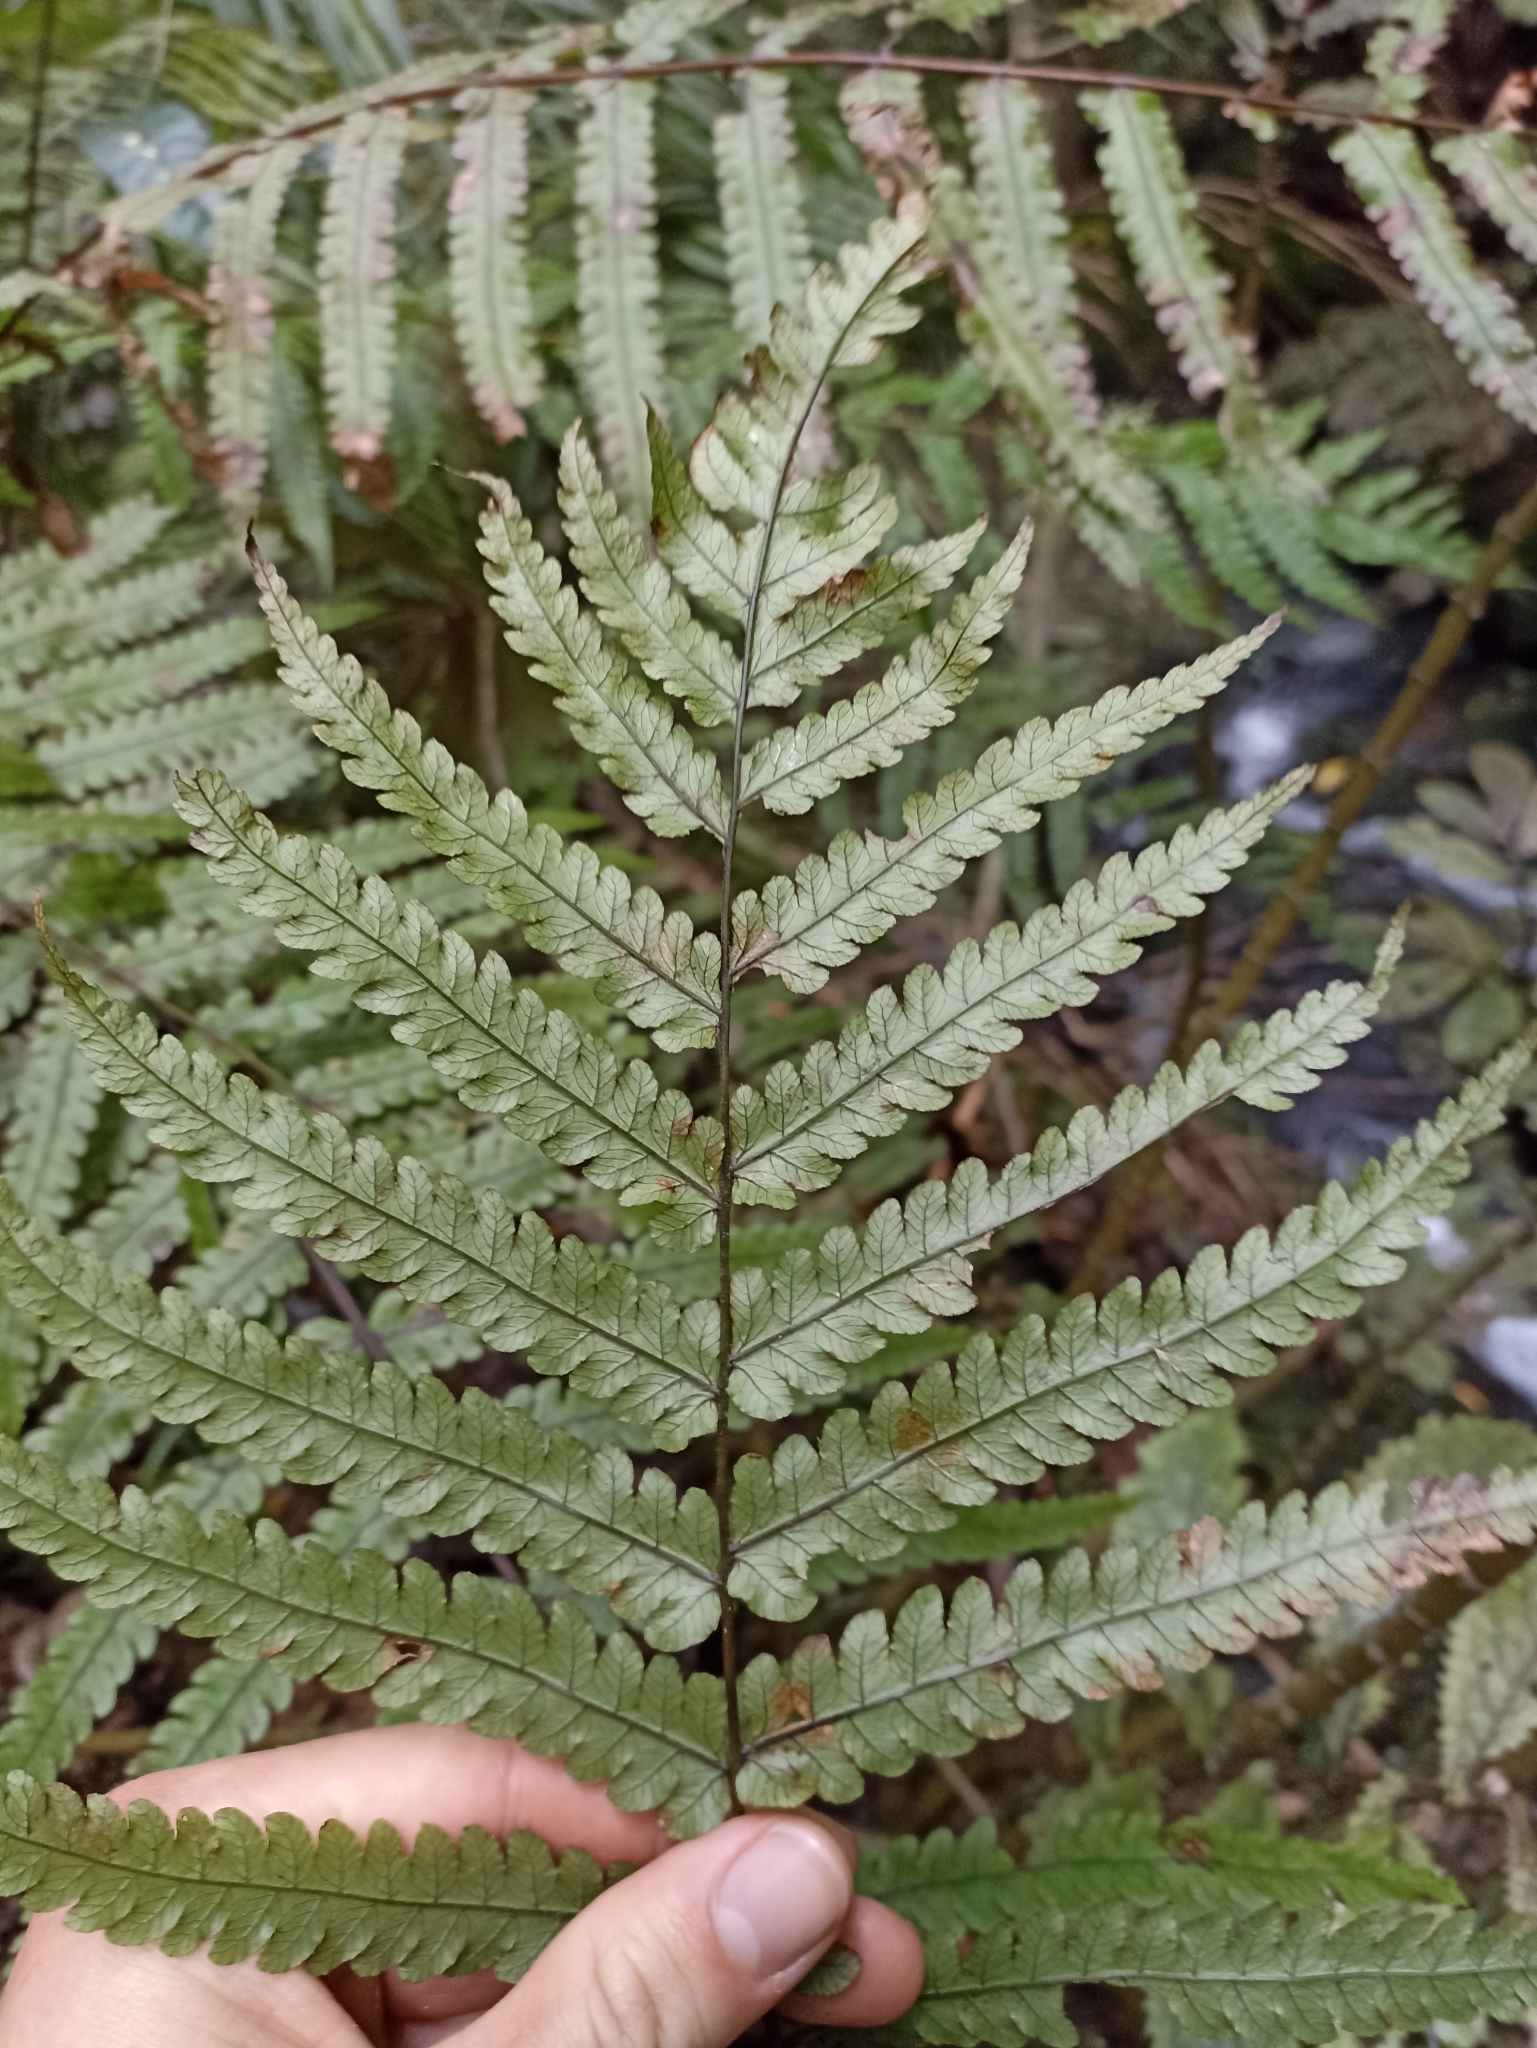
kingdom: Plantae
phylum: Tracheophyta
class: Polypodiopsida
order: Polypodiales
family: Thelypteridaceae
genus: Pakau
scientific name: Pakau pennigera
